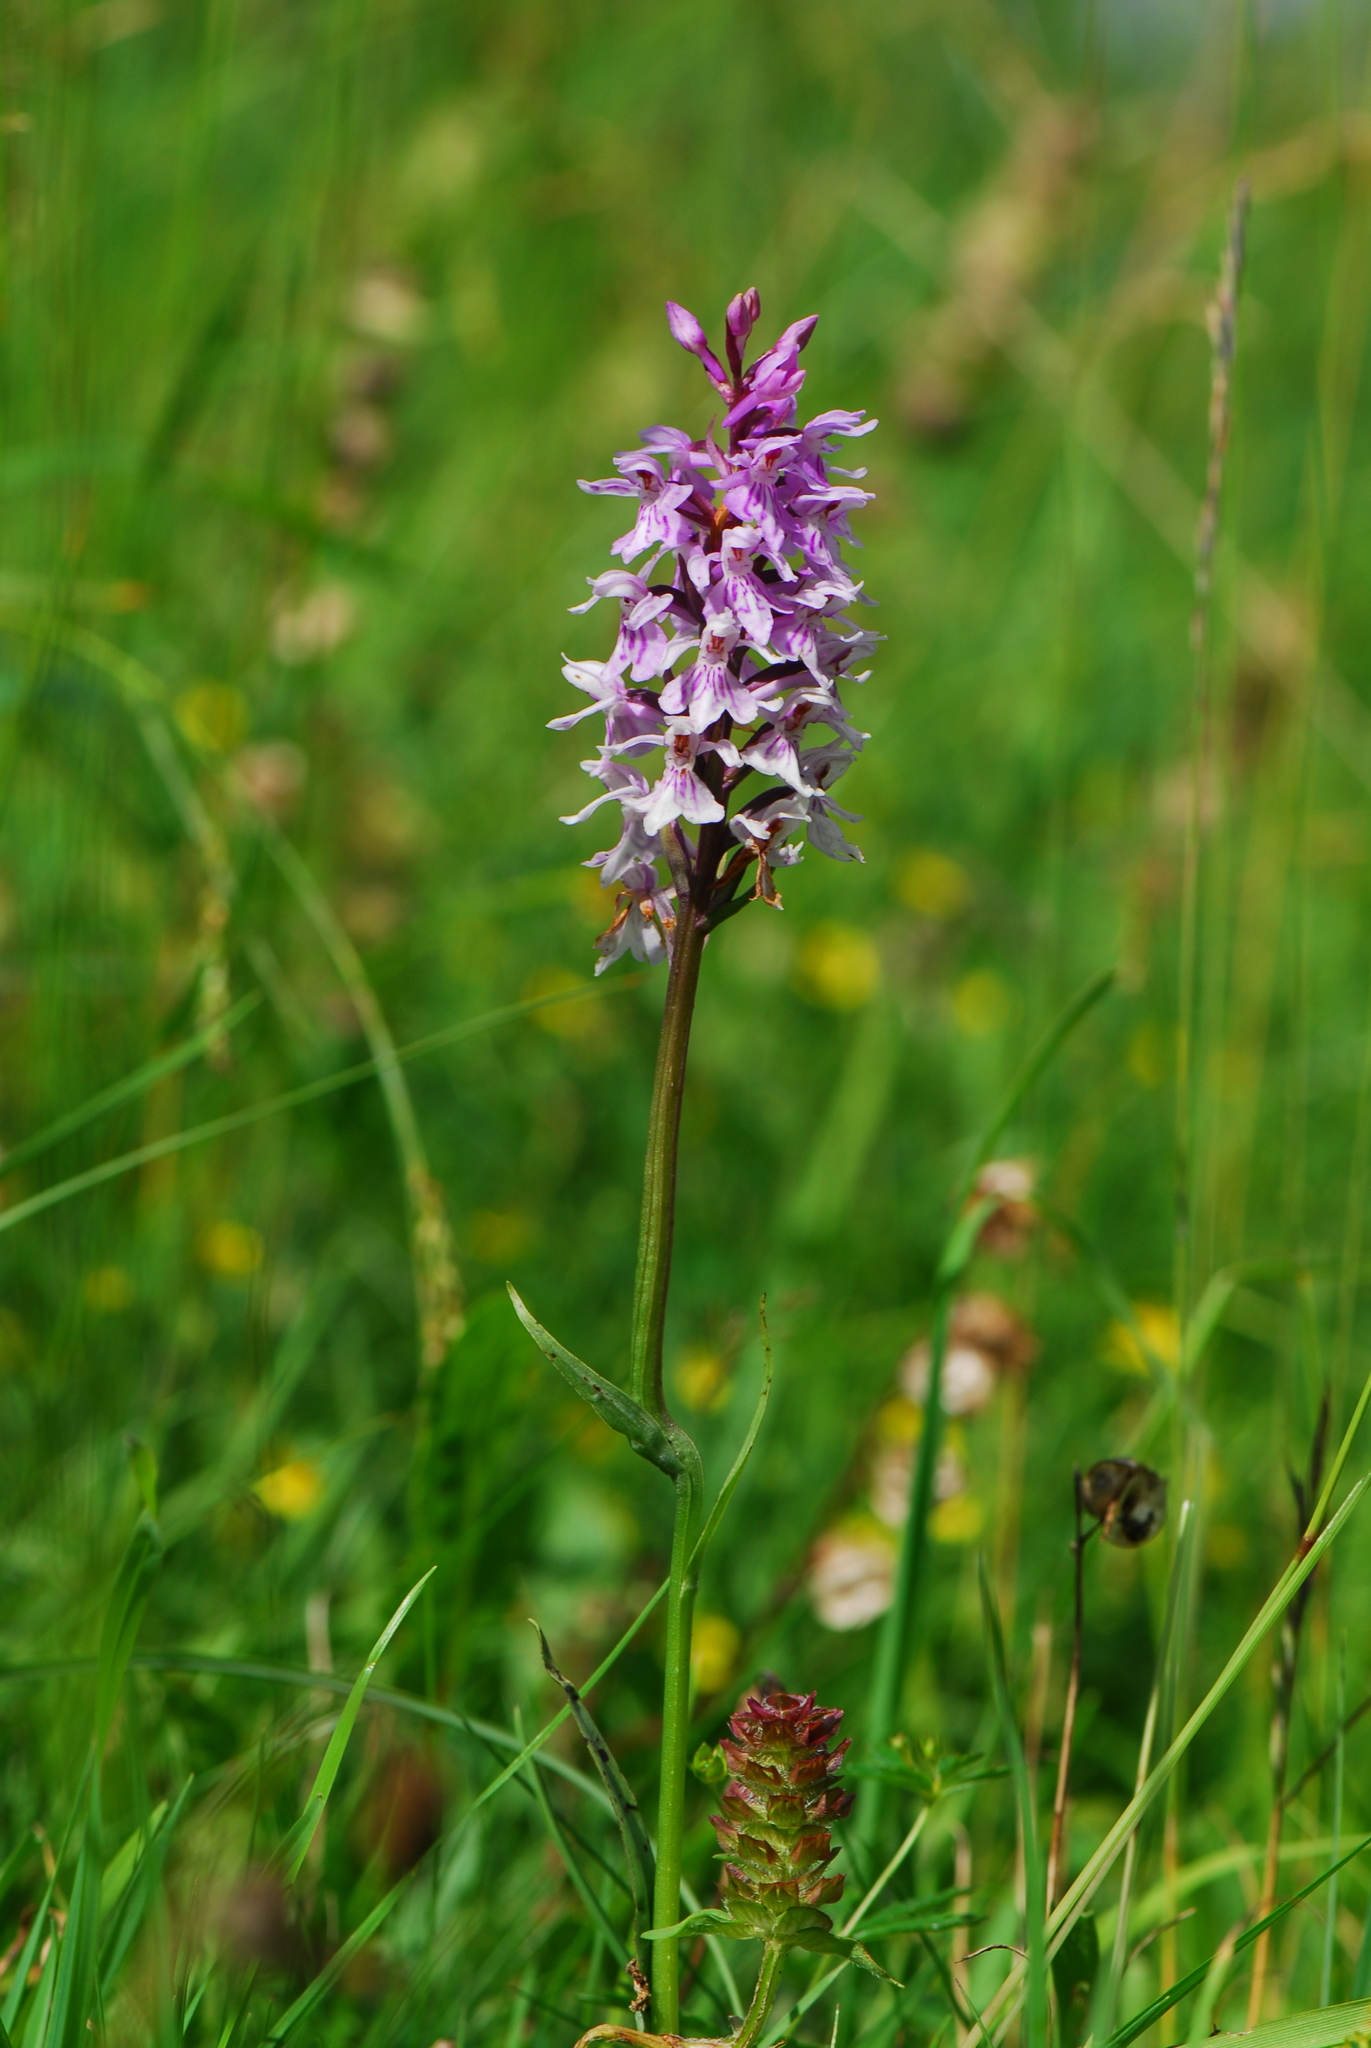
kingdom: Plantae
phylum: Tracheophyta
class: Liliopsida
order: Asparagales
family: Orchidaceae
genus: Dactylorhiza
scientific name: Dactylorhiza maculata
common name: Heath spotted-orchid
